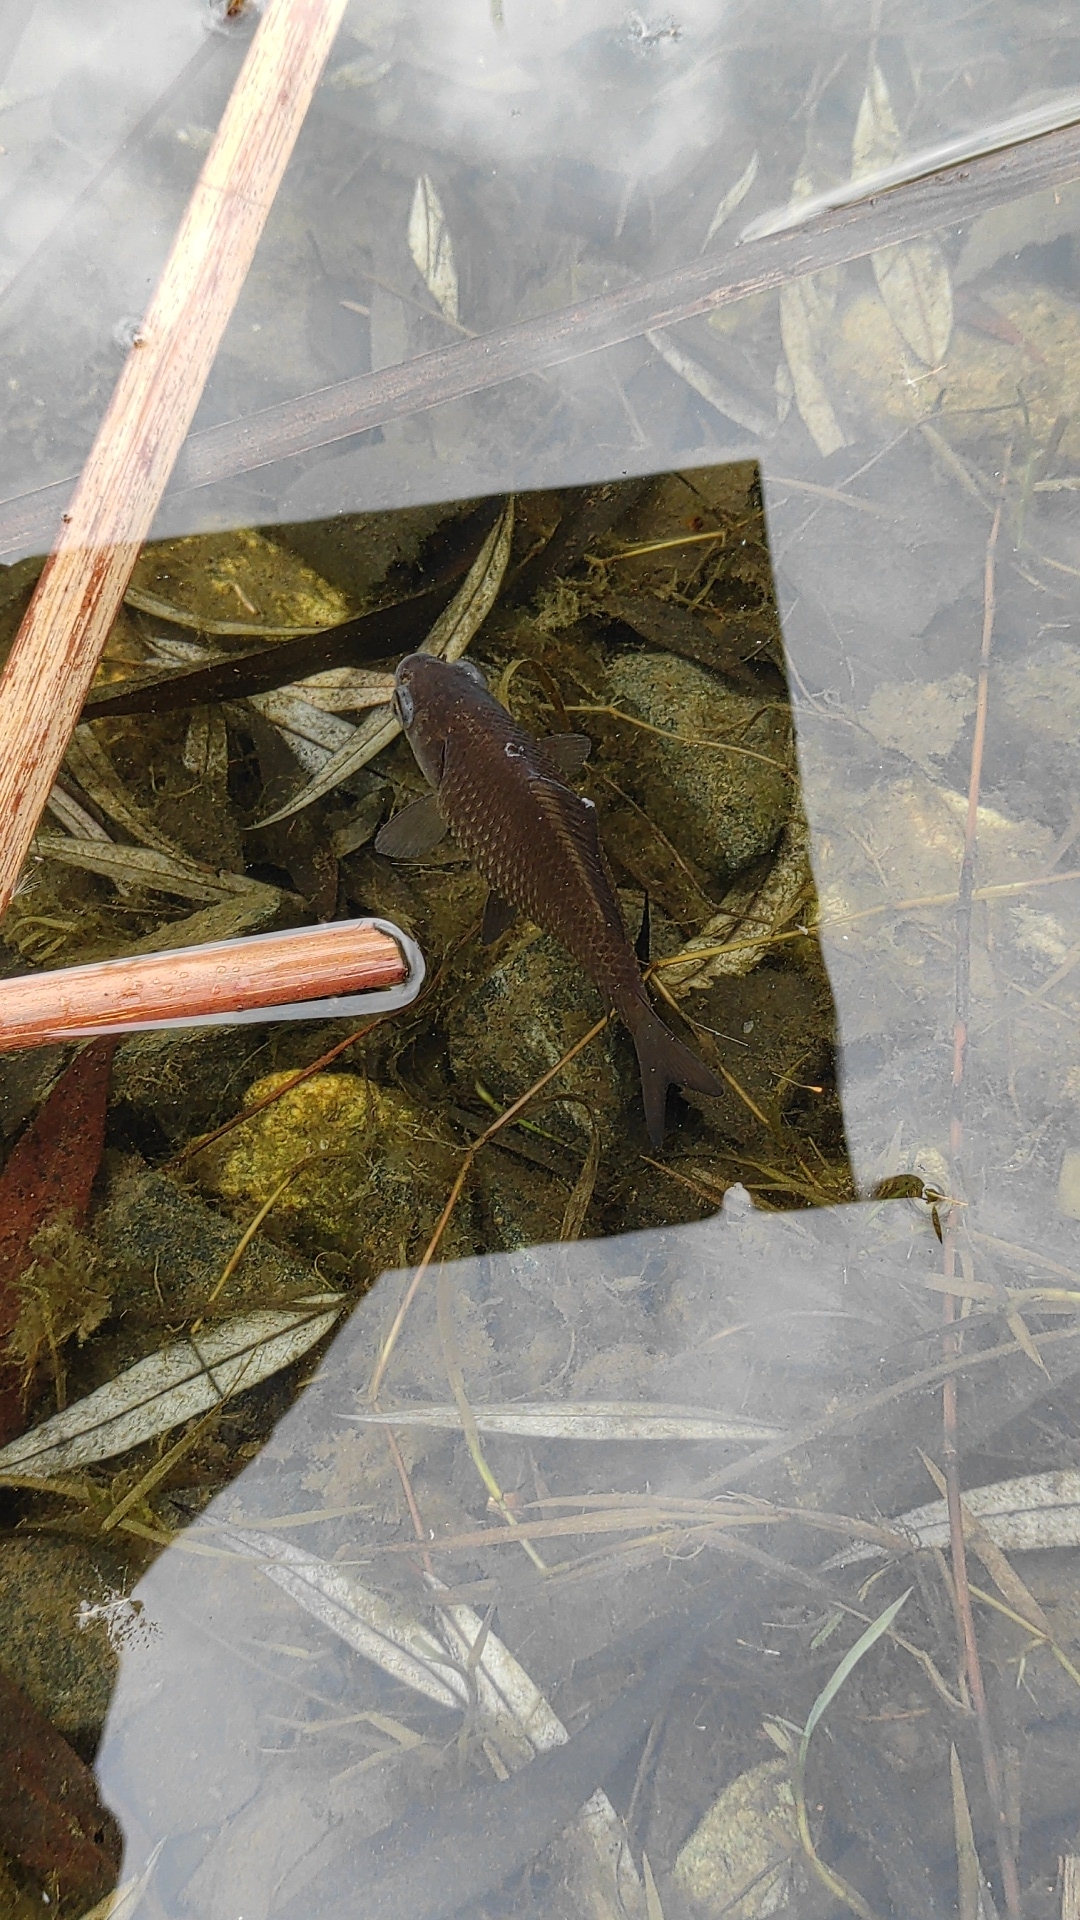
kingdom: Animalia
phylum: Chordata
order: Cypriniformes
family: Cyprinidae
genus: Carassius
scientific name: Carassius gibelio
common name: Prussian carp
